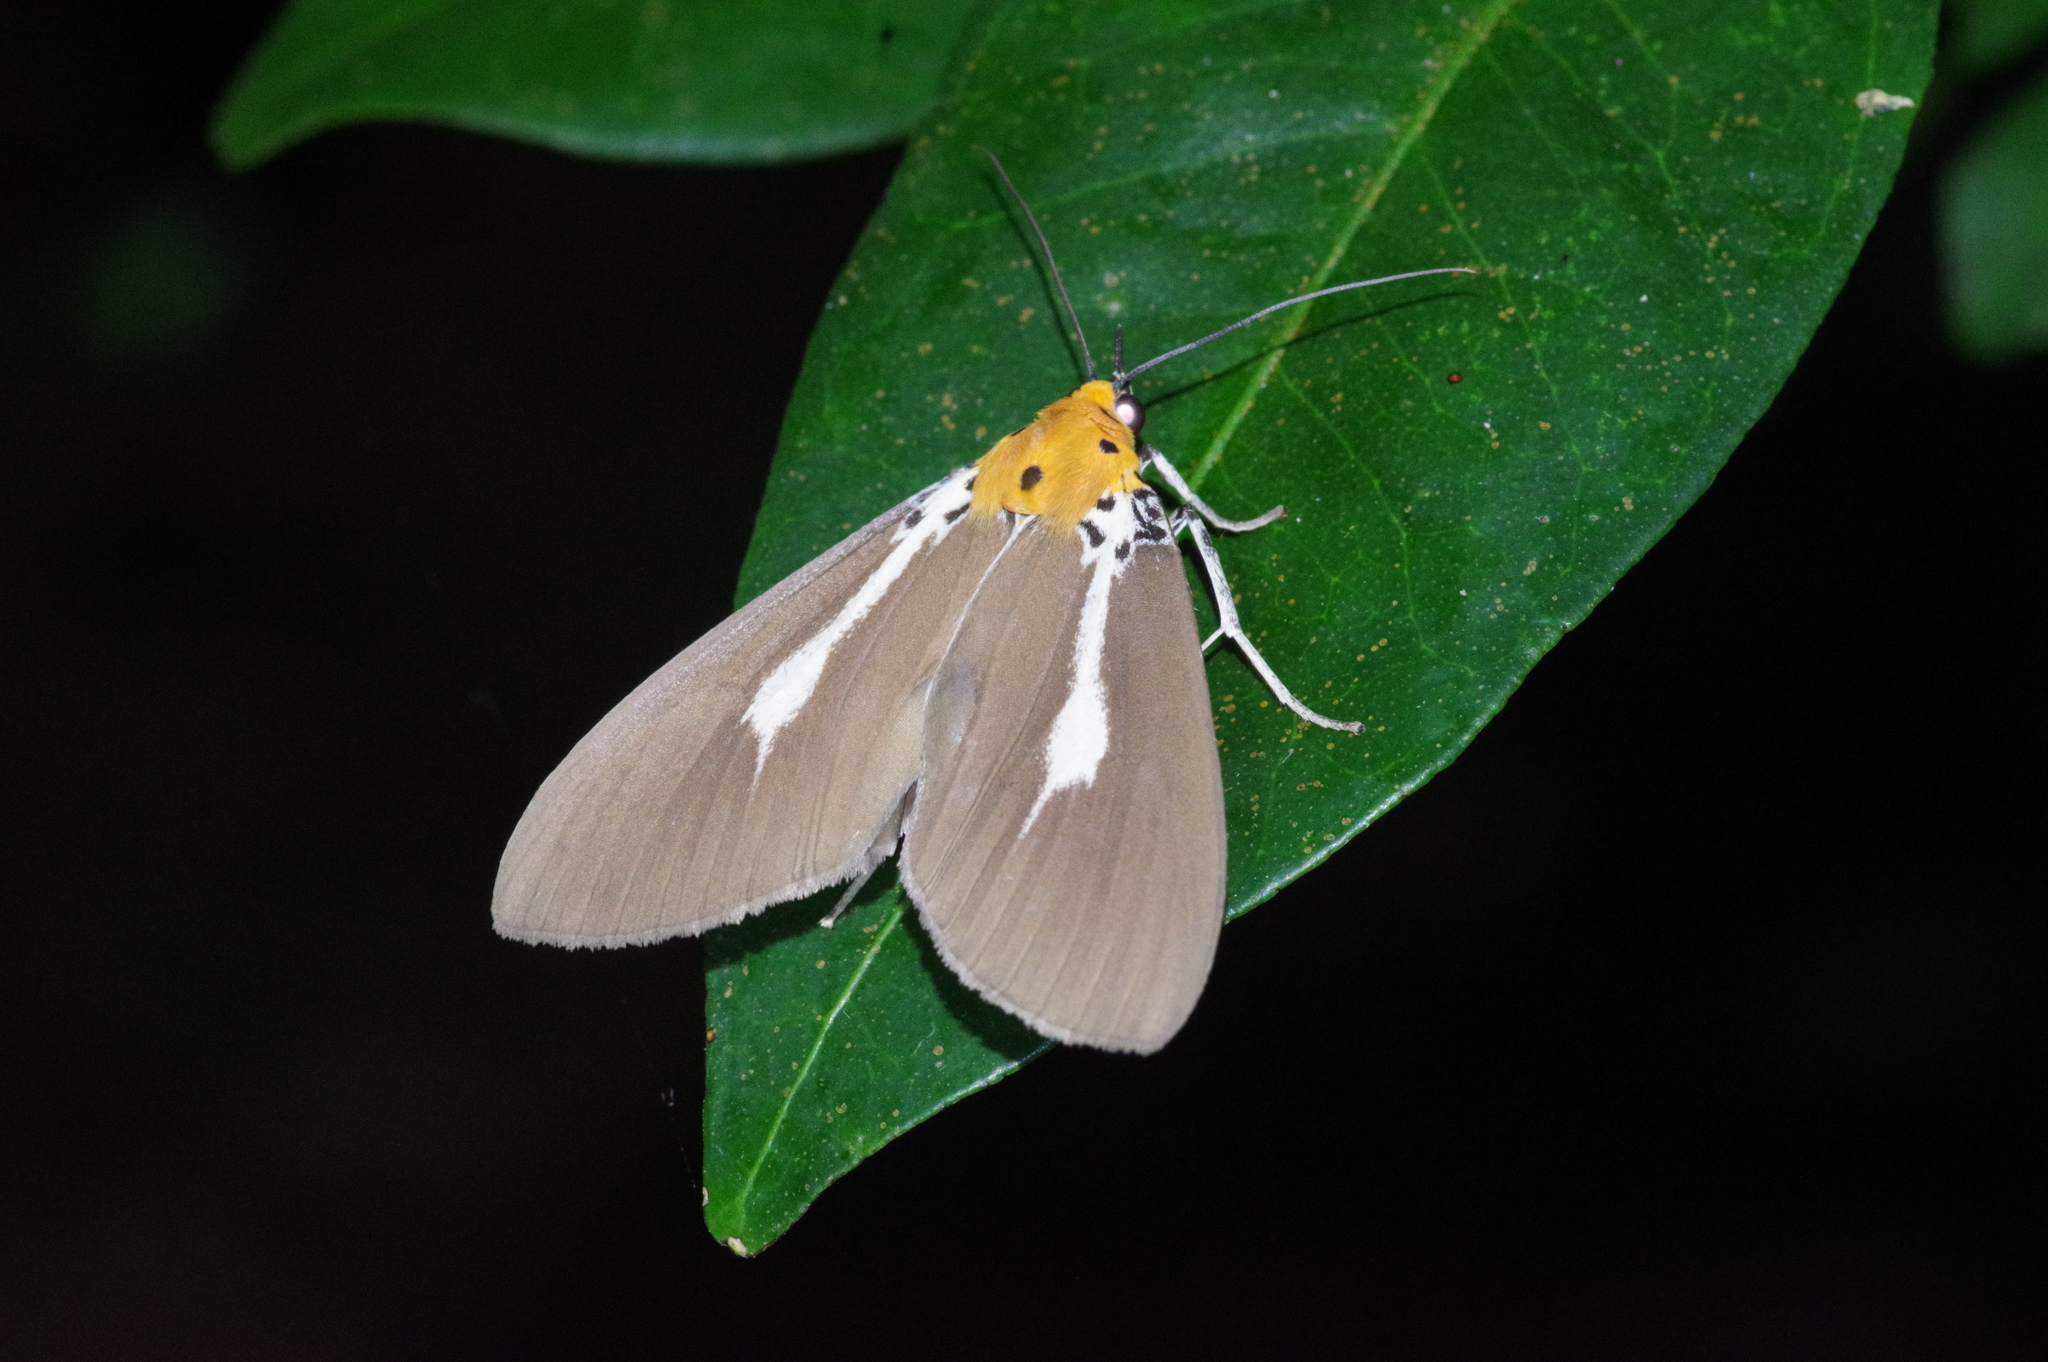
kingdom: Animalia
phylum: Arthropoda
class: Insecta
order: Lepidoptera
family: Erebidae
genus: Asota
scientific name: Asota heliconia
